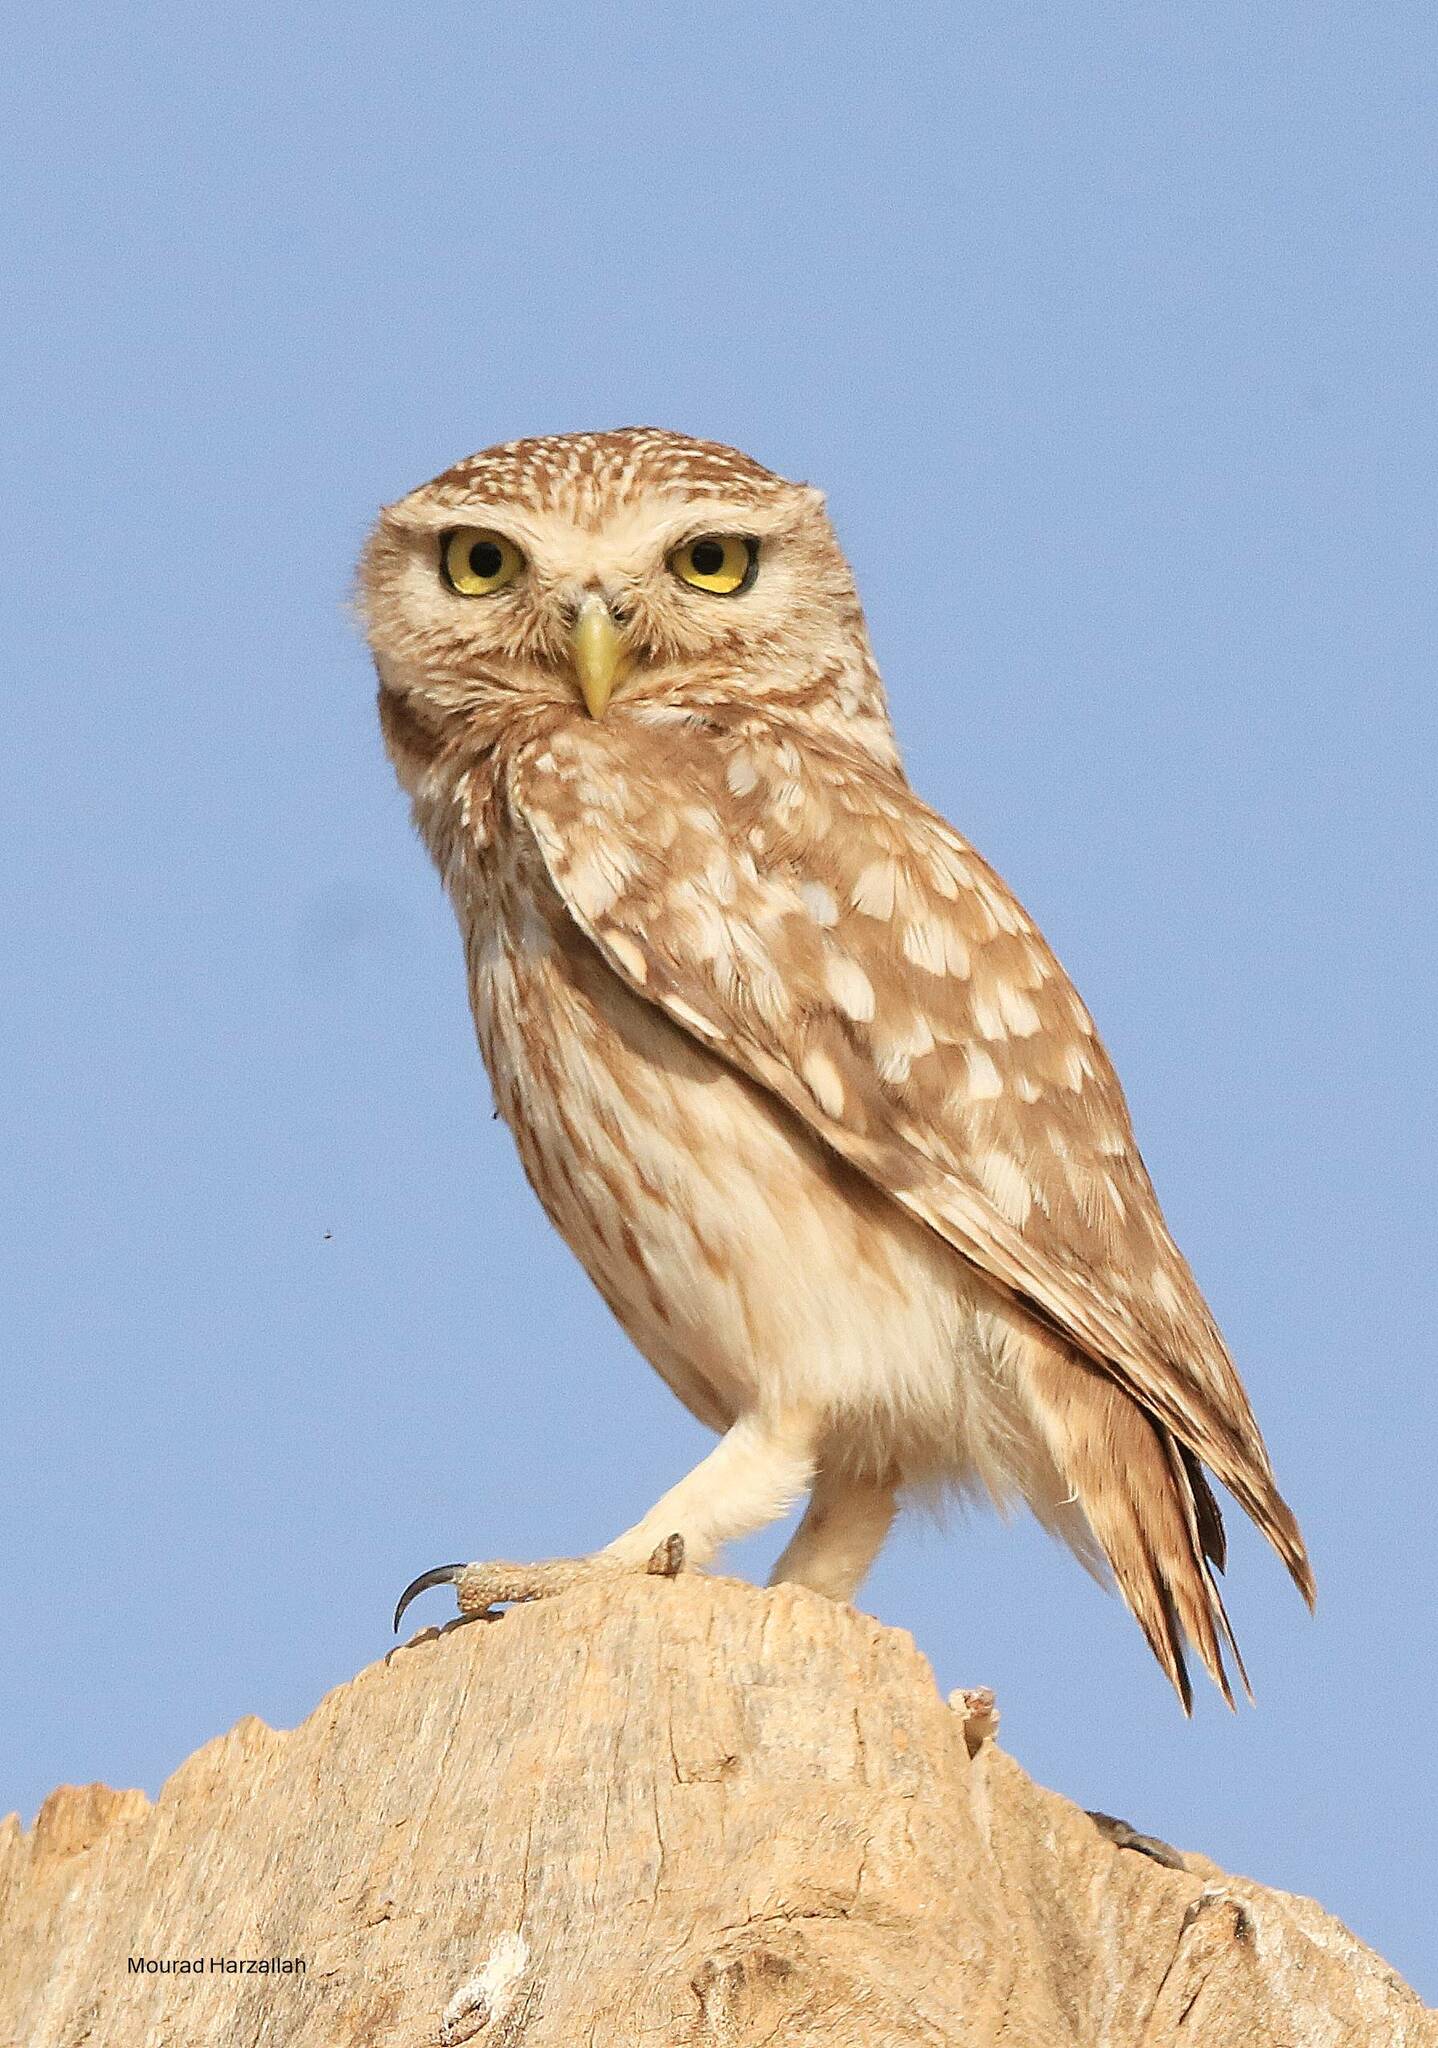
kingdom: Animalia
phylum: Chordata
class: Aves
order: Strigiformes
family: Strigidae
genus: Athene
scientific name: Athene noctua
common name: Little owl
